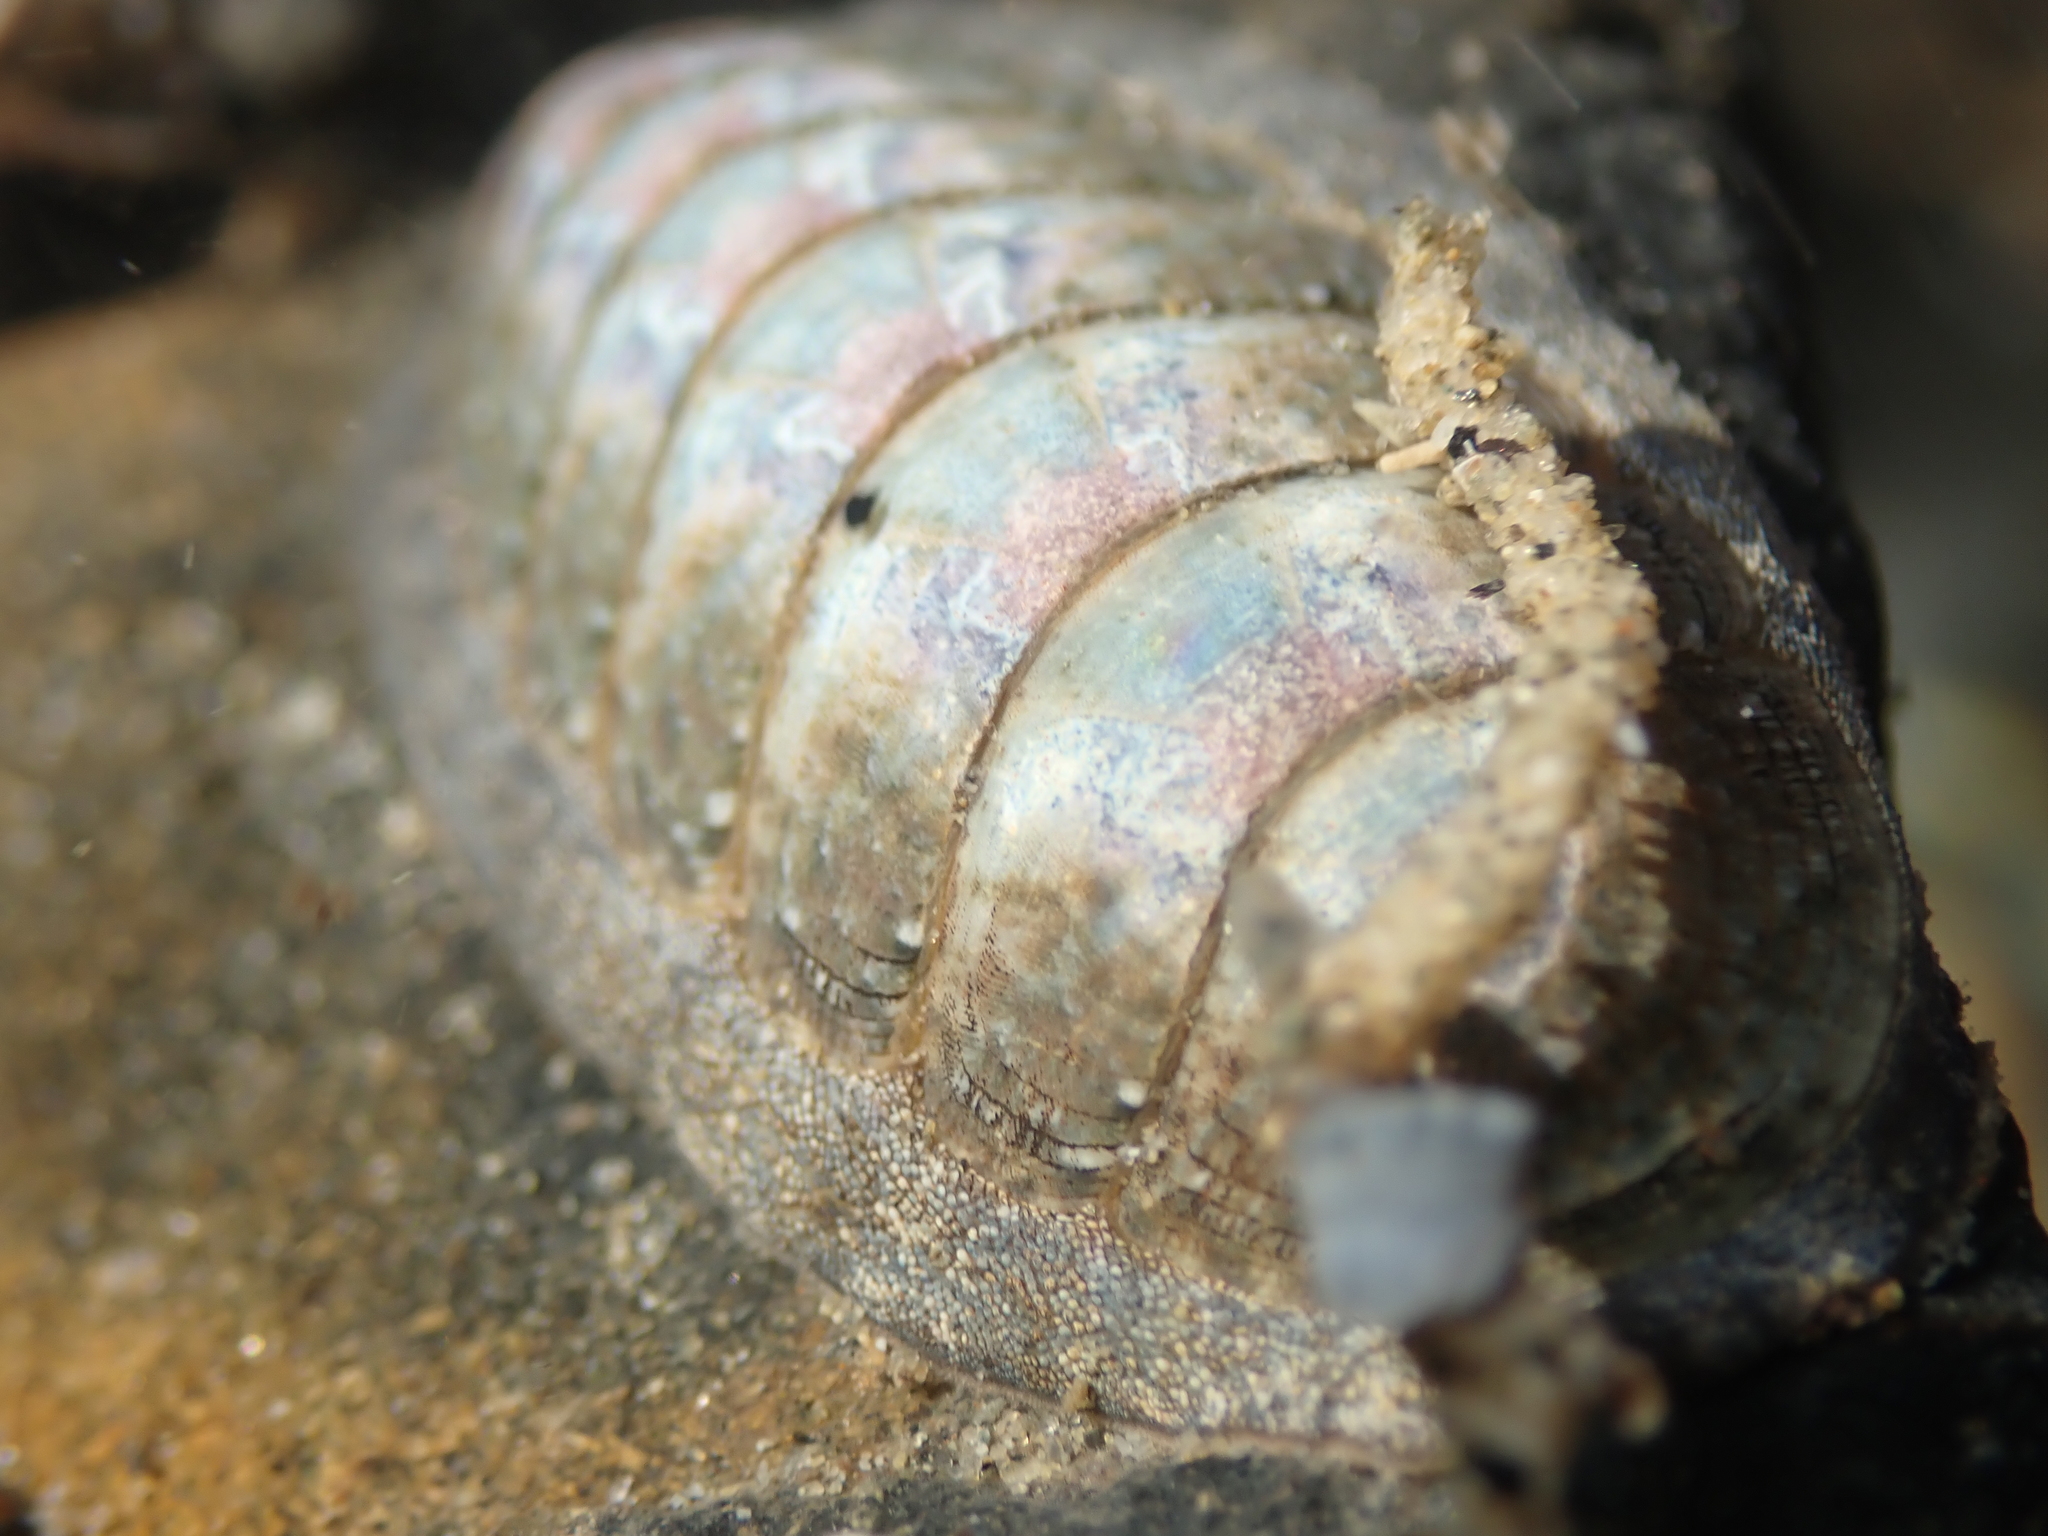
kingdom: Animalia
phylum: Mollusca
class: Polyplacophora
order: Chitonida
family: Ischnochitonidae
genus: Ischnochiton
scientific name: Ischnochiton maorianus
